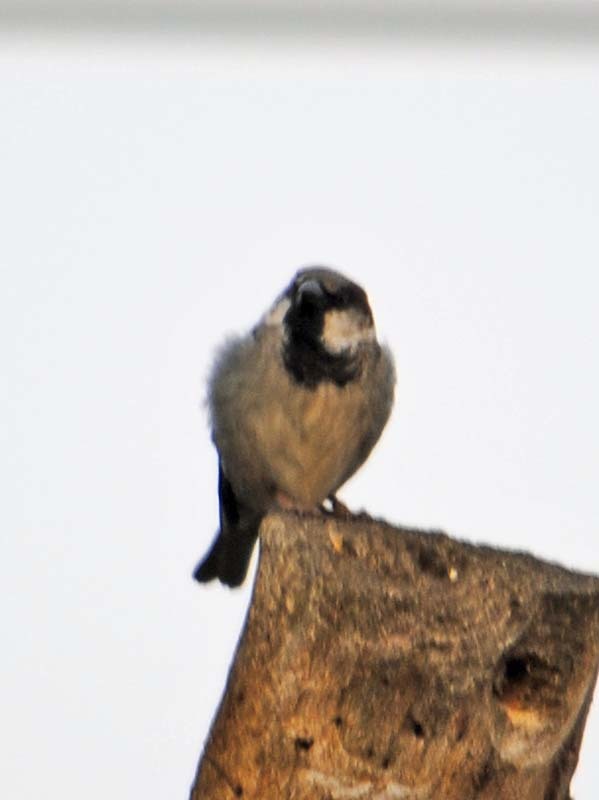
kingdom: Animalia
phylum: Chordata
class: Aves
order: Passeriformes
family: Passeridae
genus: Passer
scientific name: Passer domesticus
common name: House sparrow
